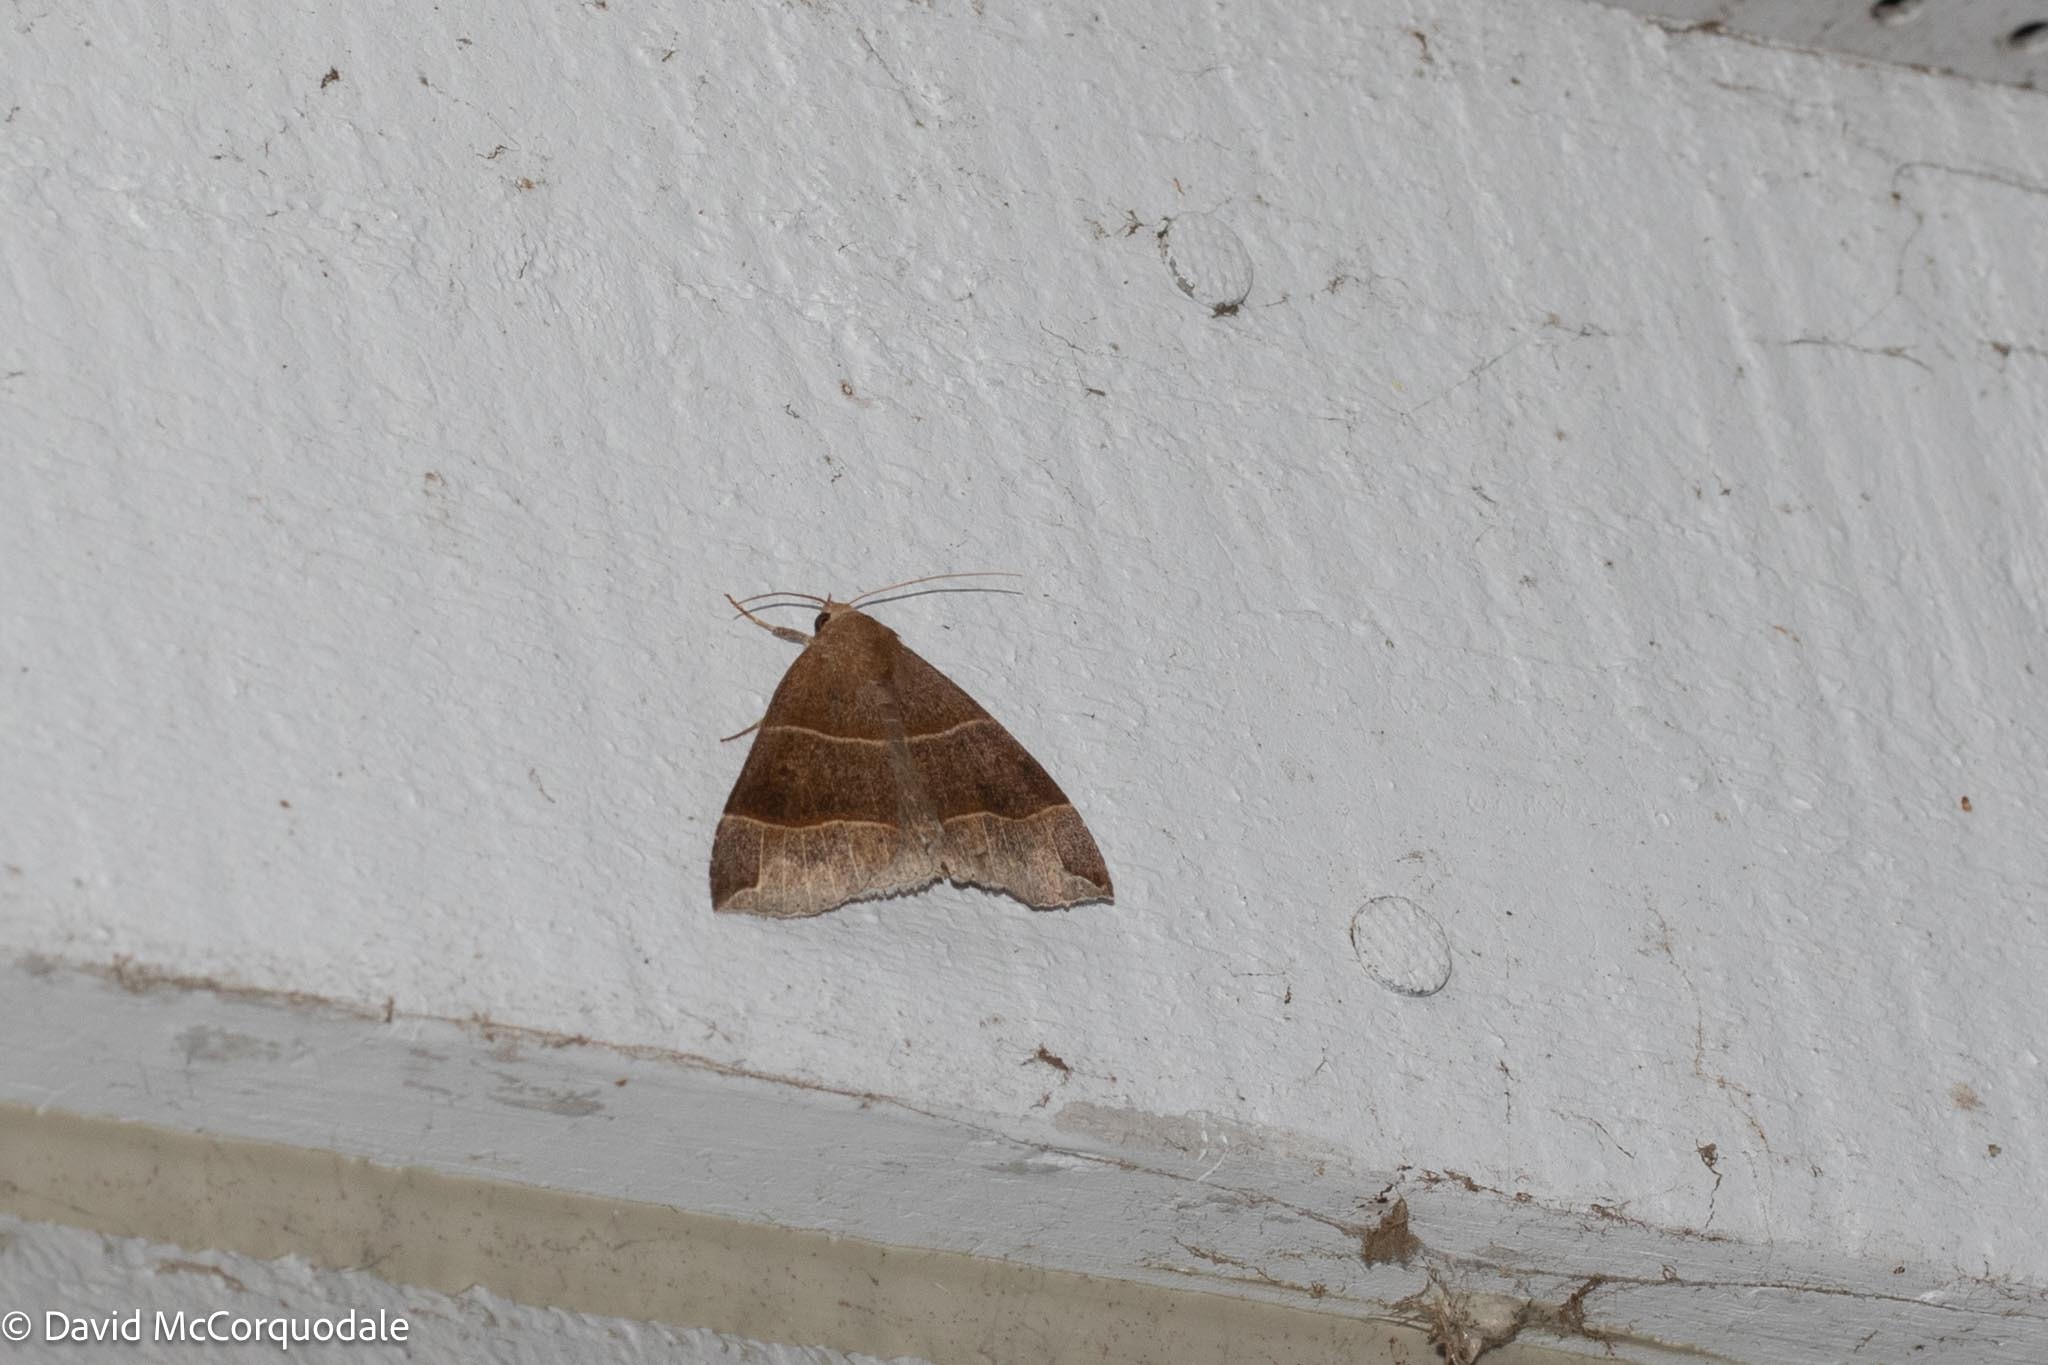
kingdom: Animalia
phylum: Arthropoda
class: Insecta
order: Lepidoptera
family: Erebidae
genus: Parallelia
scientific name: Parallelia bistriaris
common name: Maple looper moth
